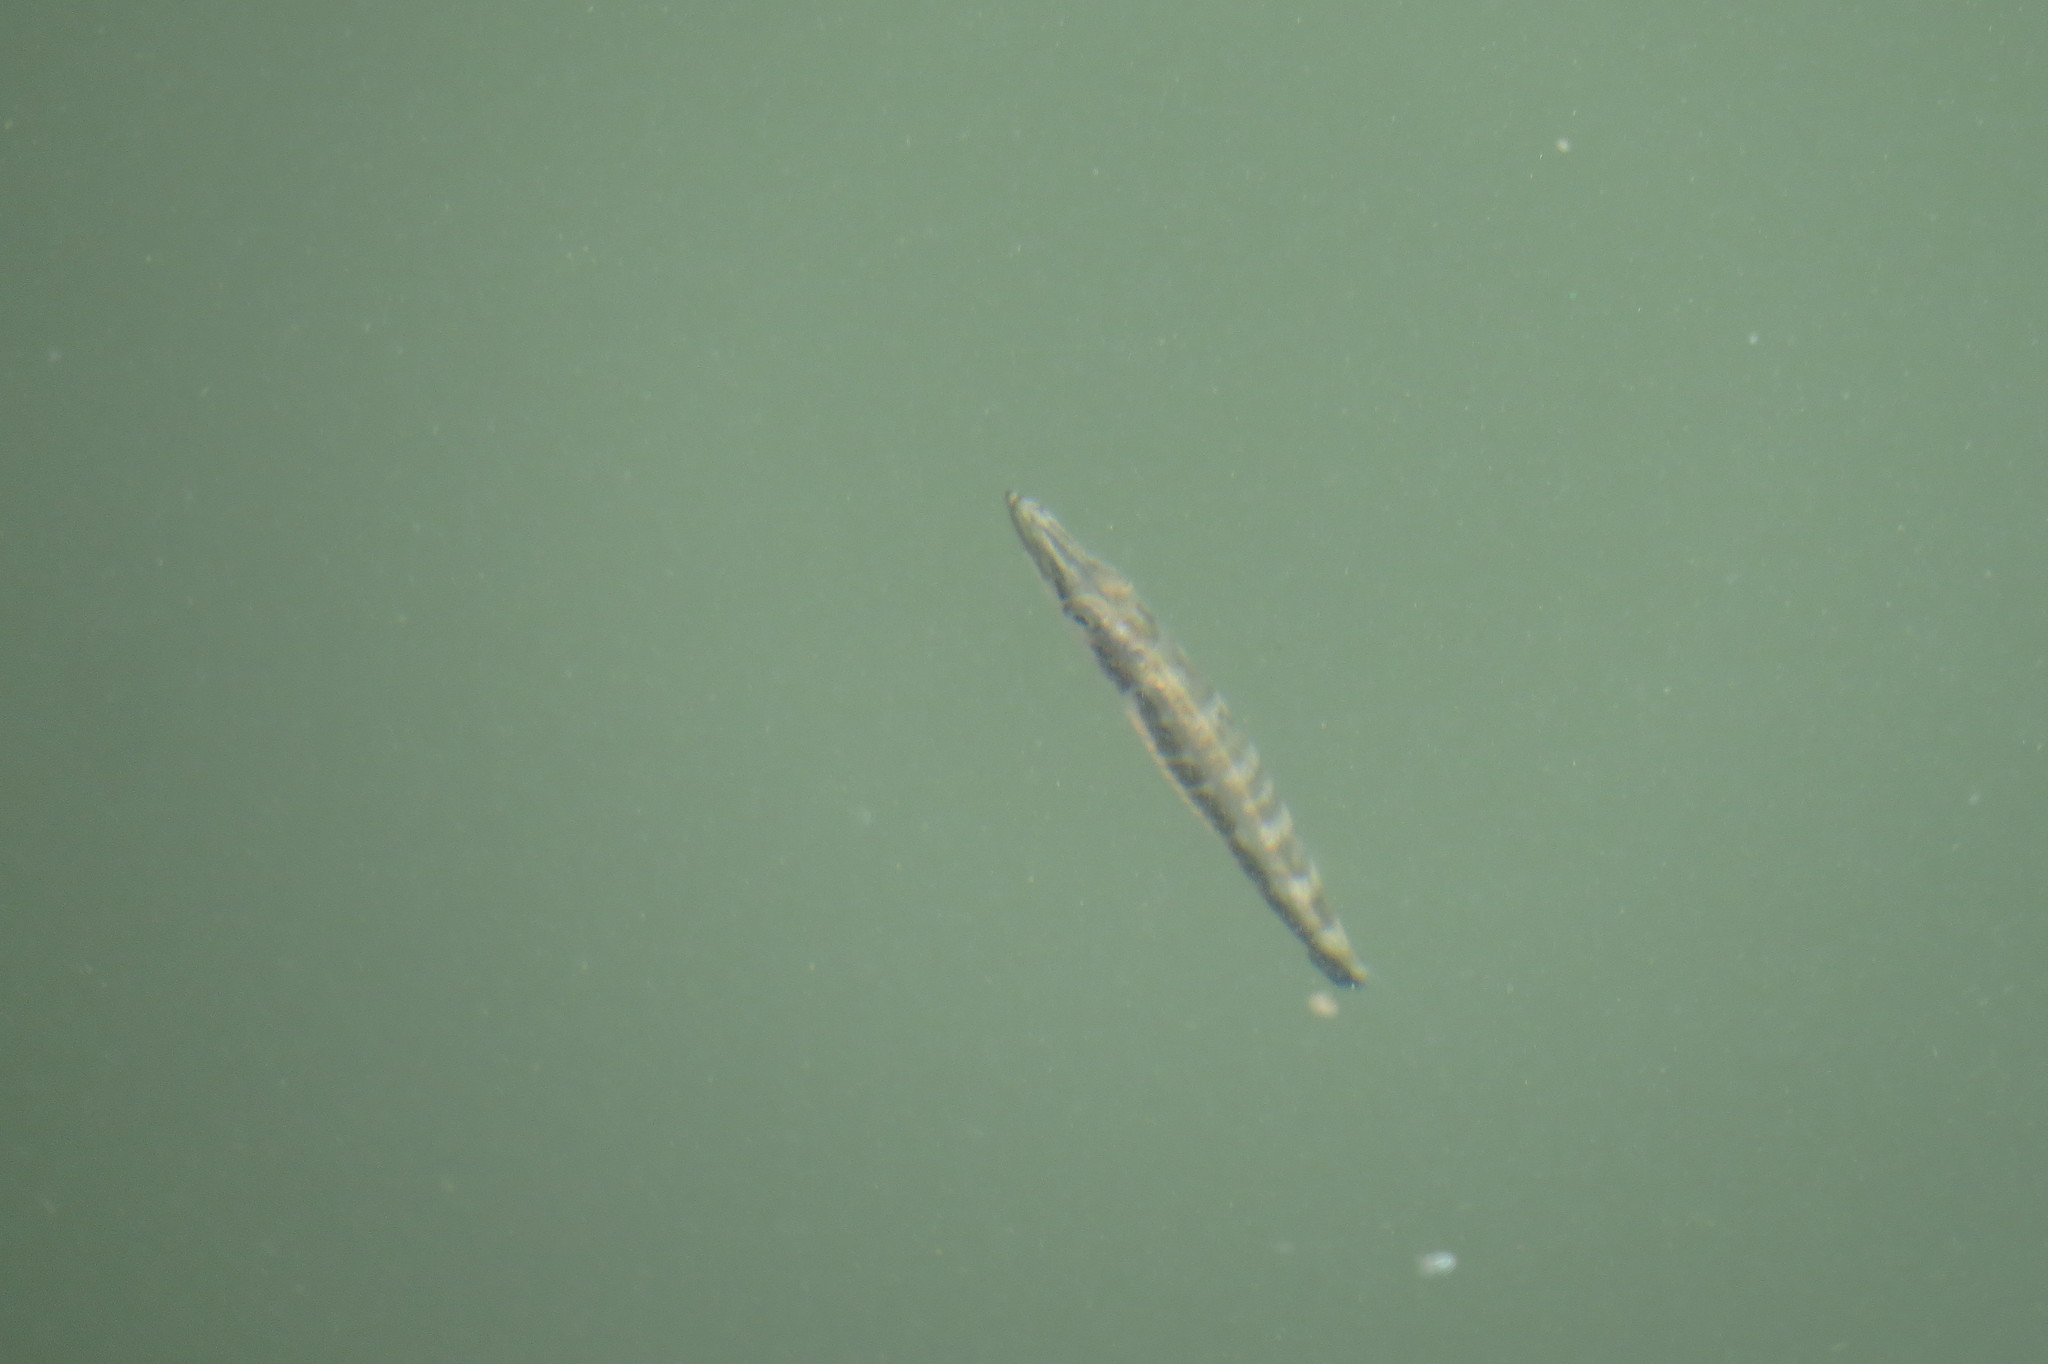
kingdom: Animalia
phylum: Chordata
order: Perciformes
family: Sphyraenidae
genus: Sphyraena
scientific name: Sphyraena barracuda
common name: Great barracuda
